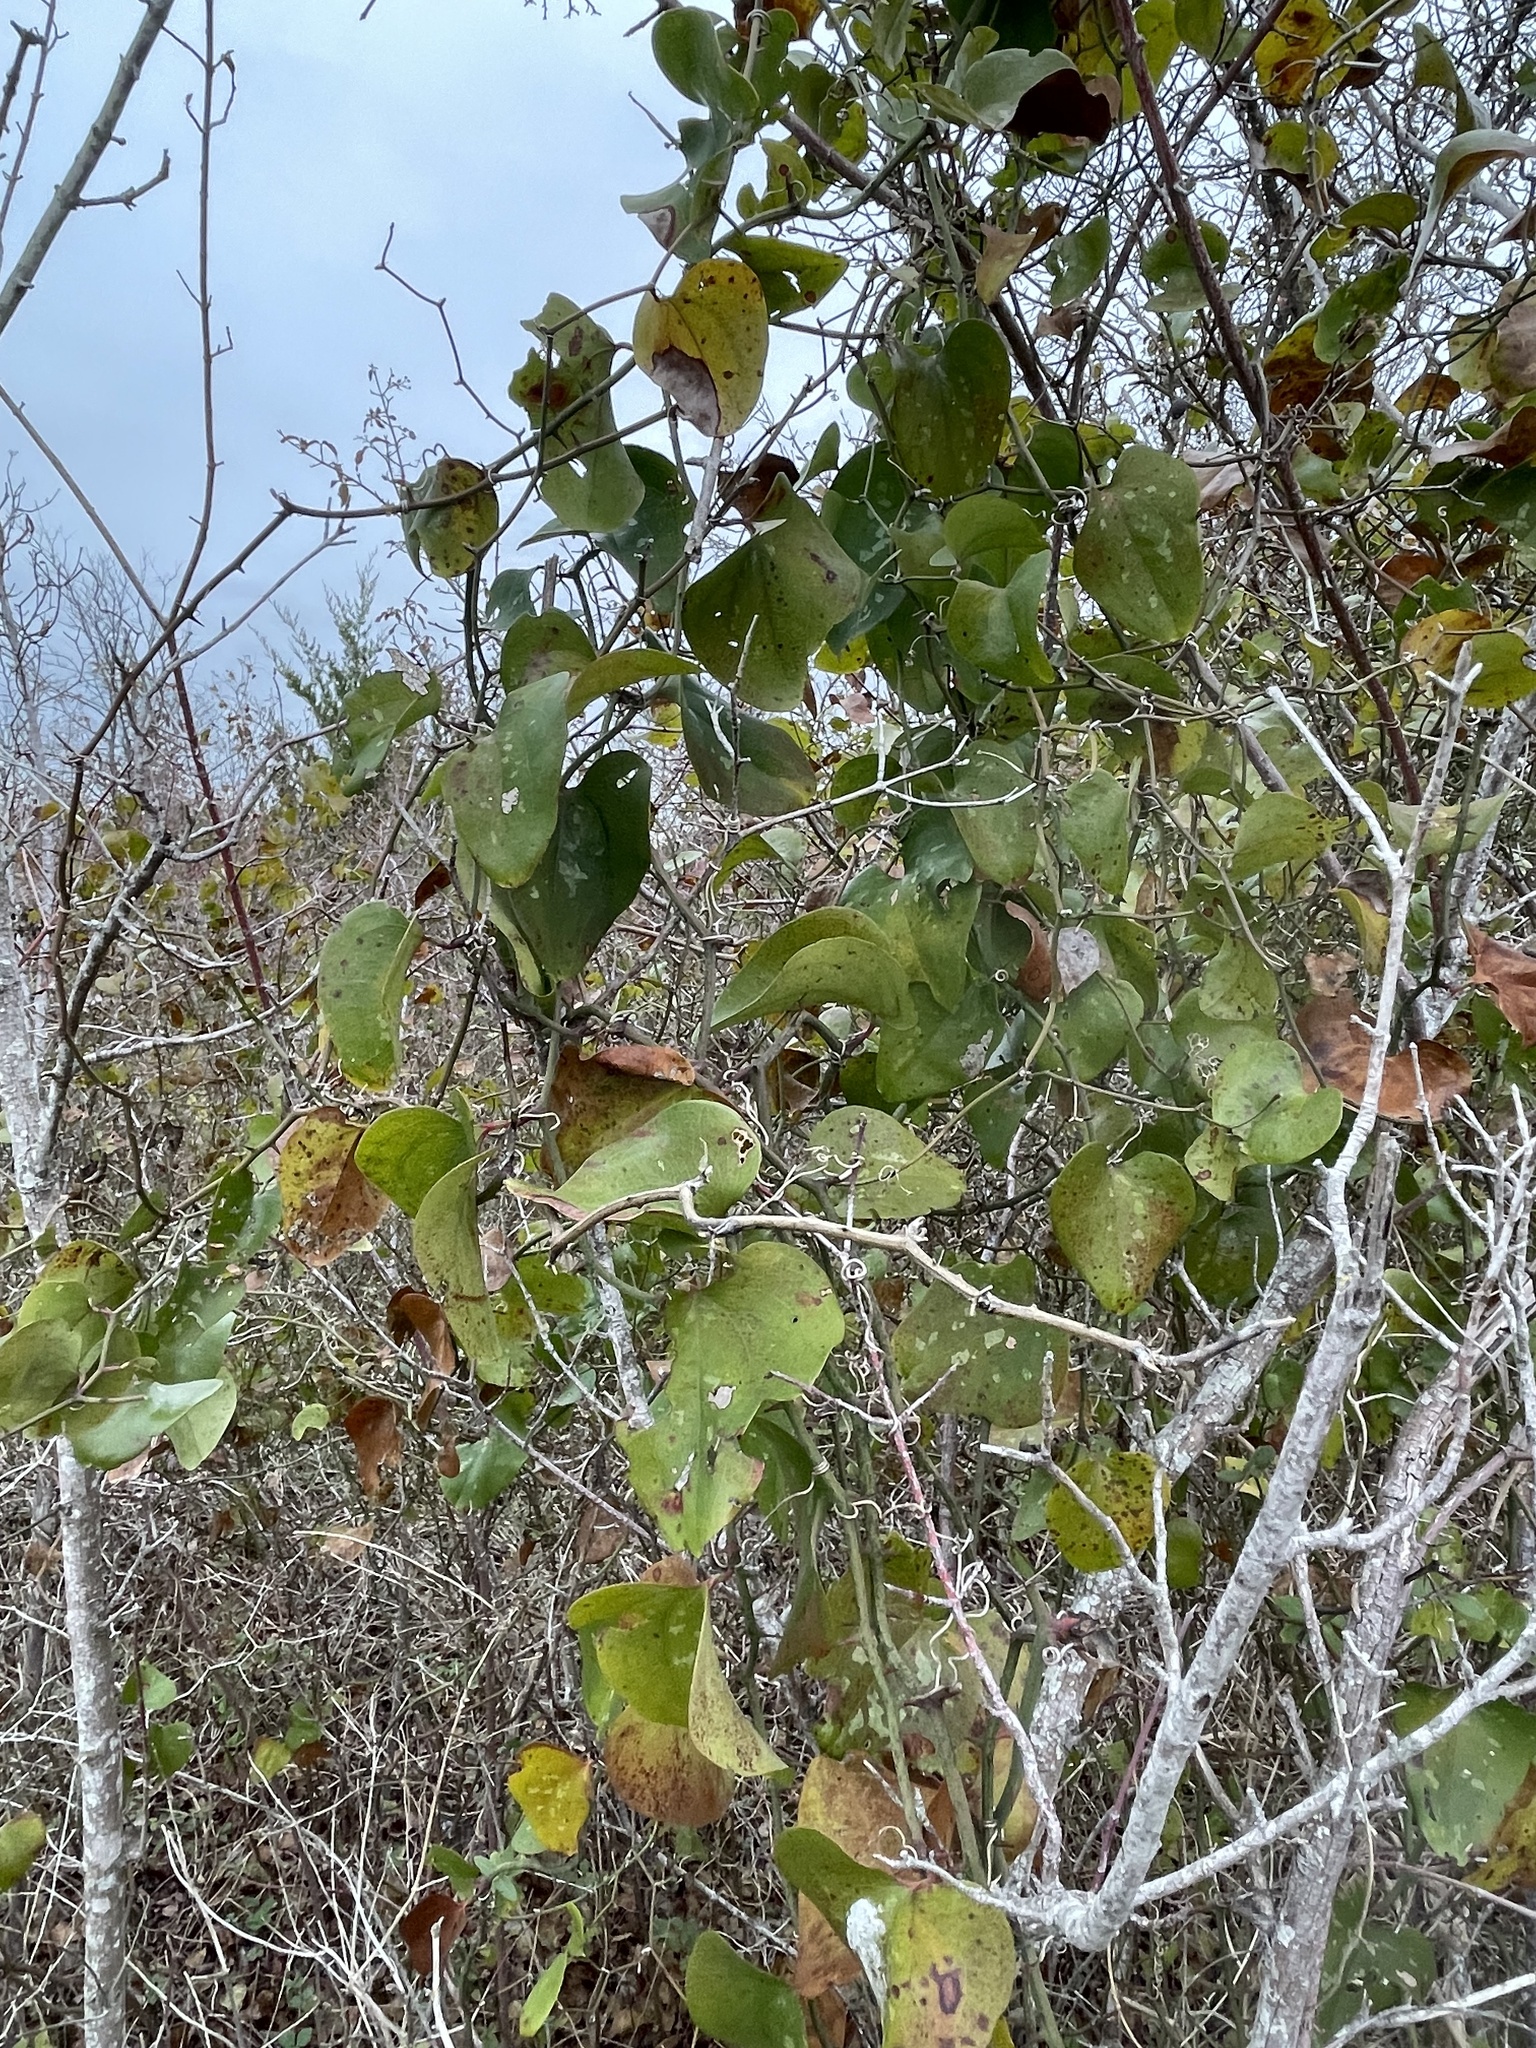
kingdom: Plantae
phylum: Tracheophyta
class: Liliopsida
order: Liliales
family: Smilacaceae
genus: Smilax
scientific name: Smilax bona-nox
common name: Catbrier
